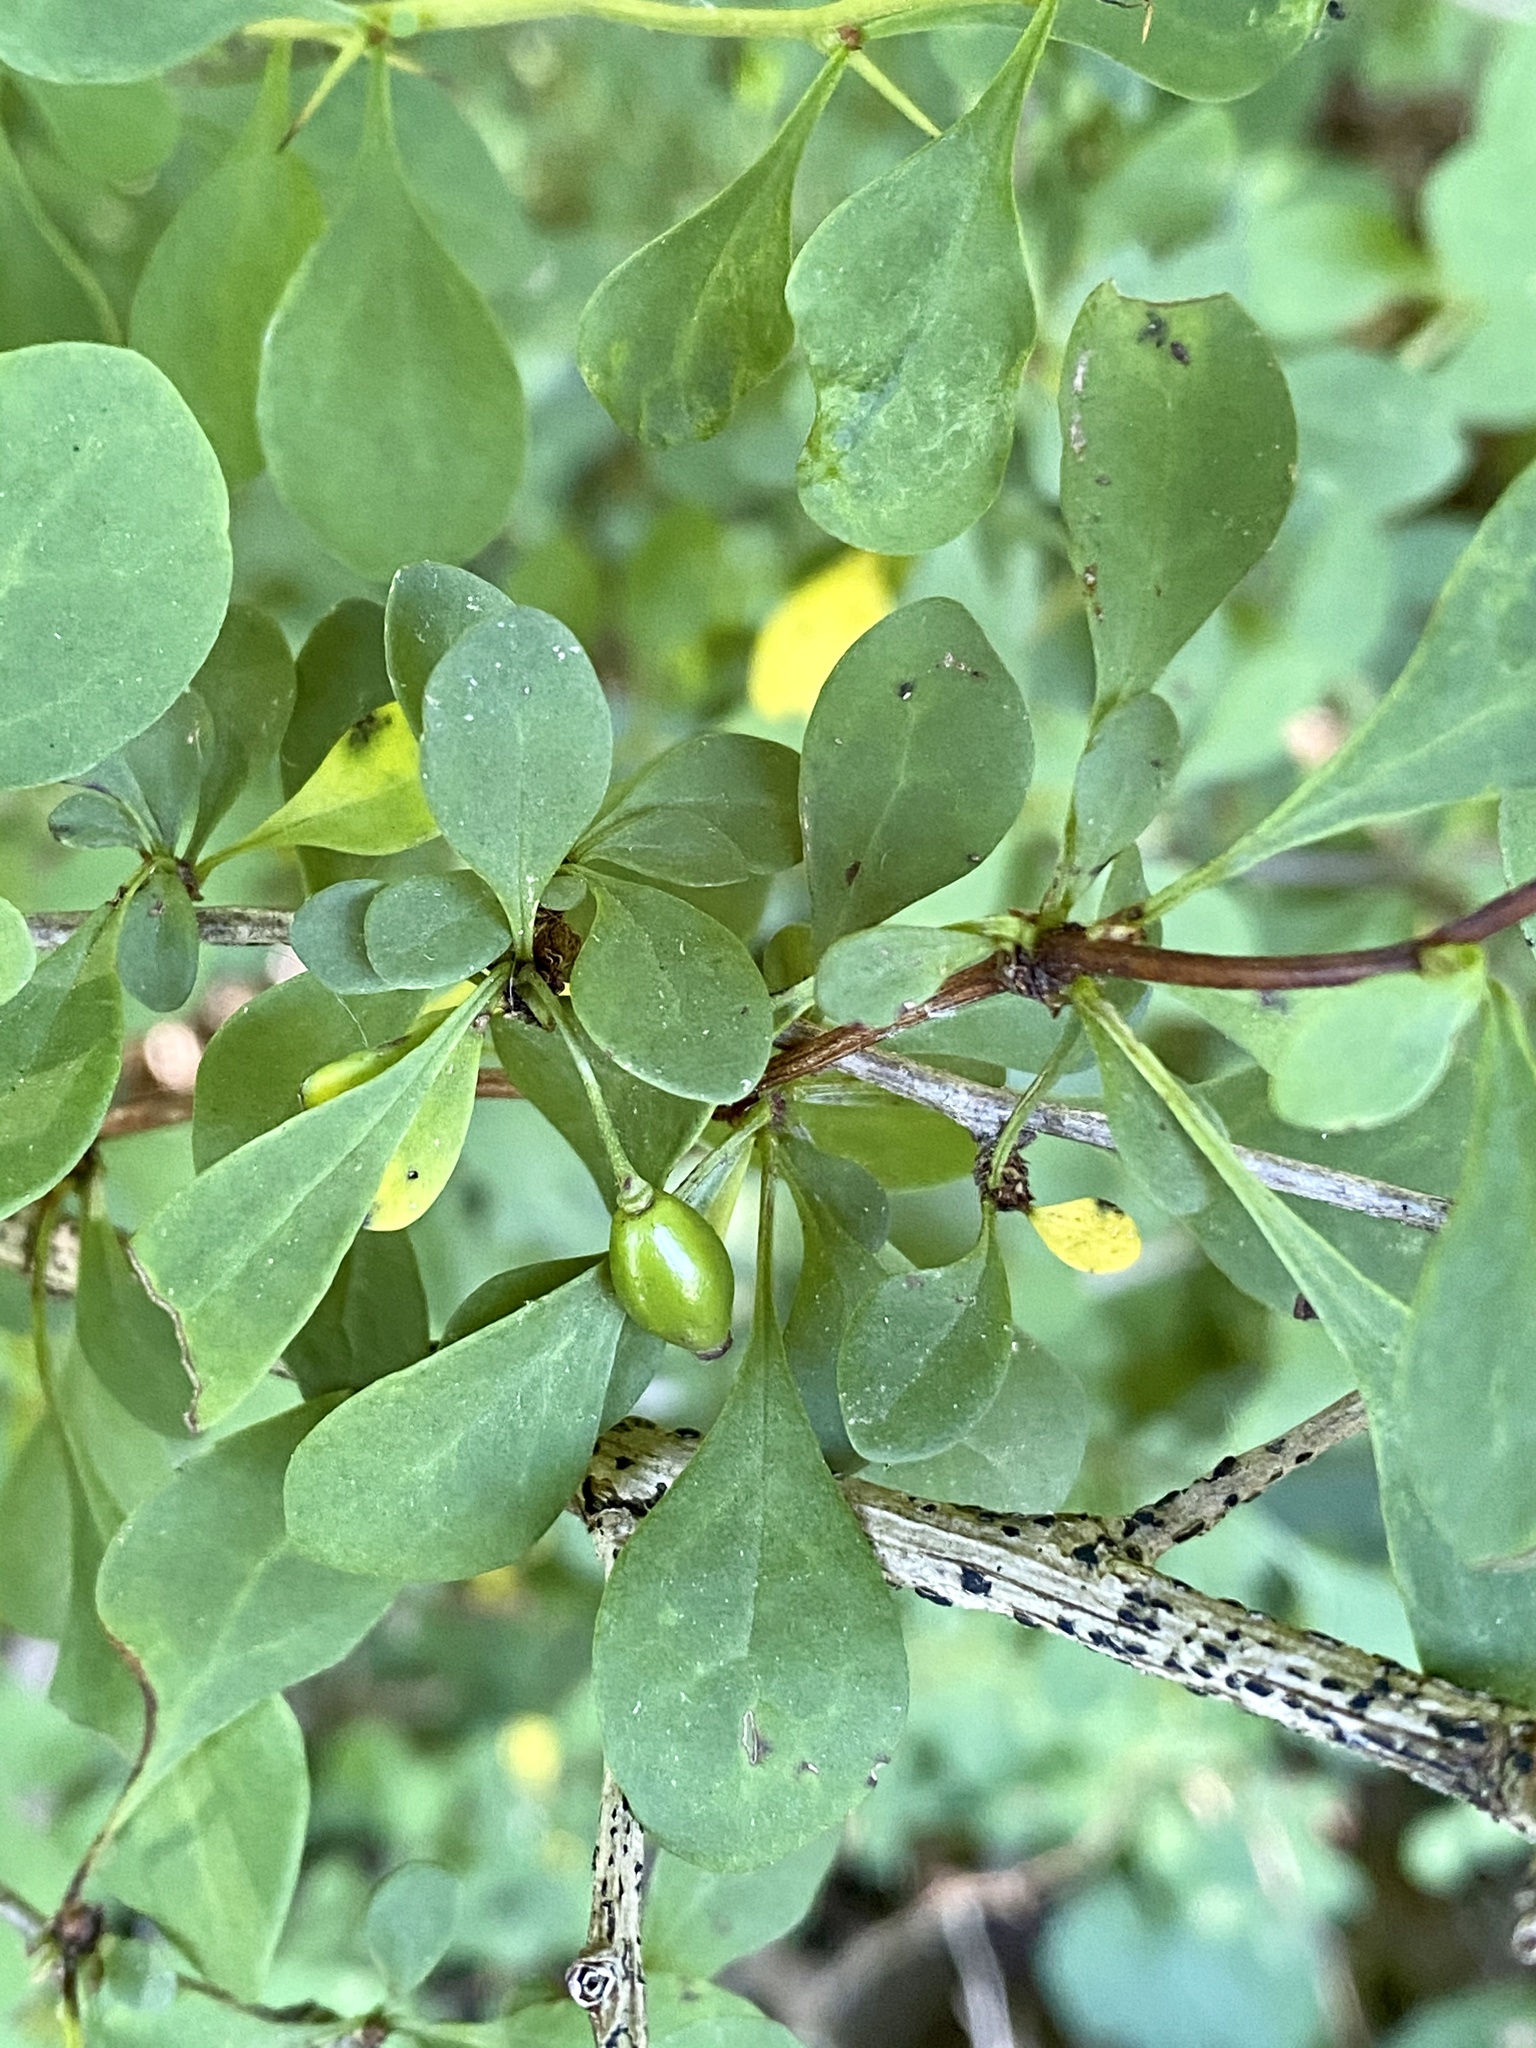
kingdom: Plantae
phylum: Tracheophyta
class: Magnoliopsida
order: Ranunculales
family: Berberidaceae
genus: Berberis
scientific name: Berberis thunbergii
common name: Japanese barberry
